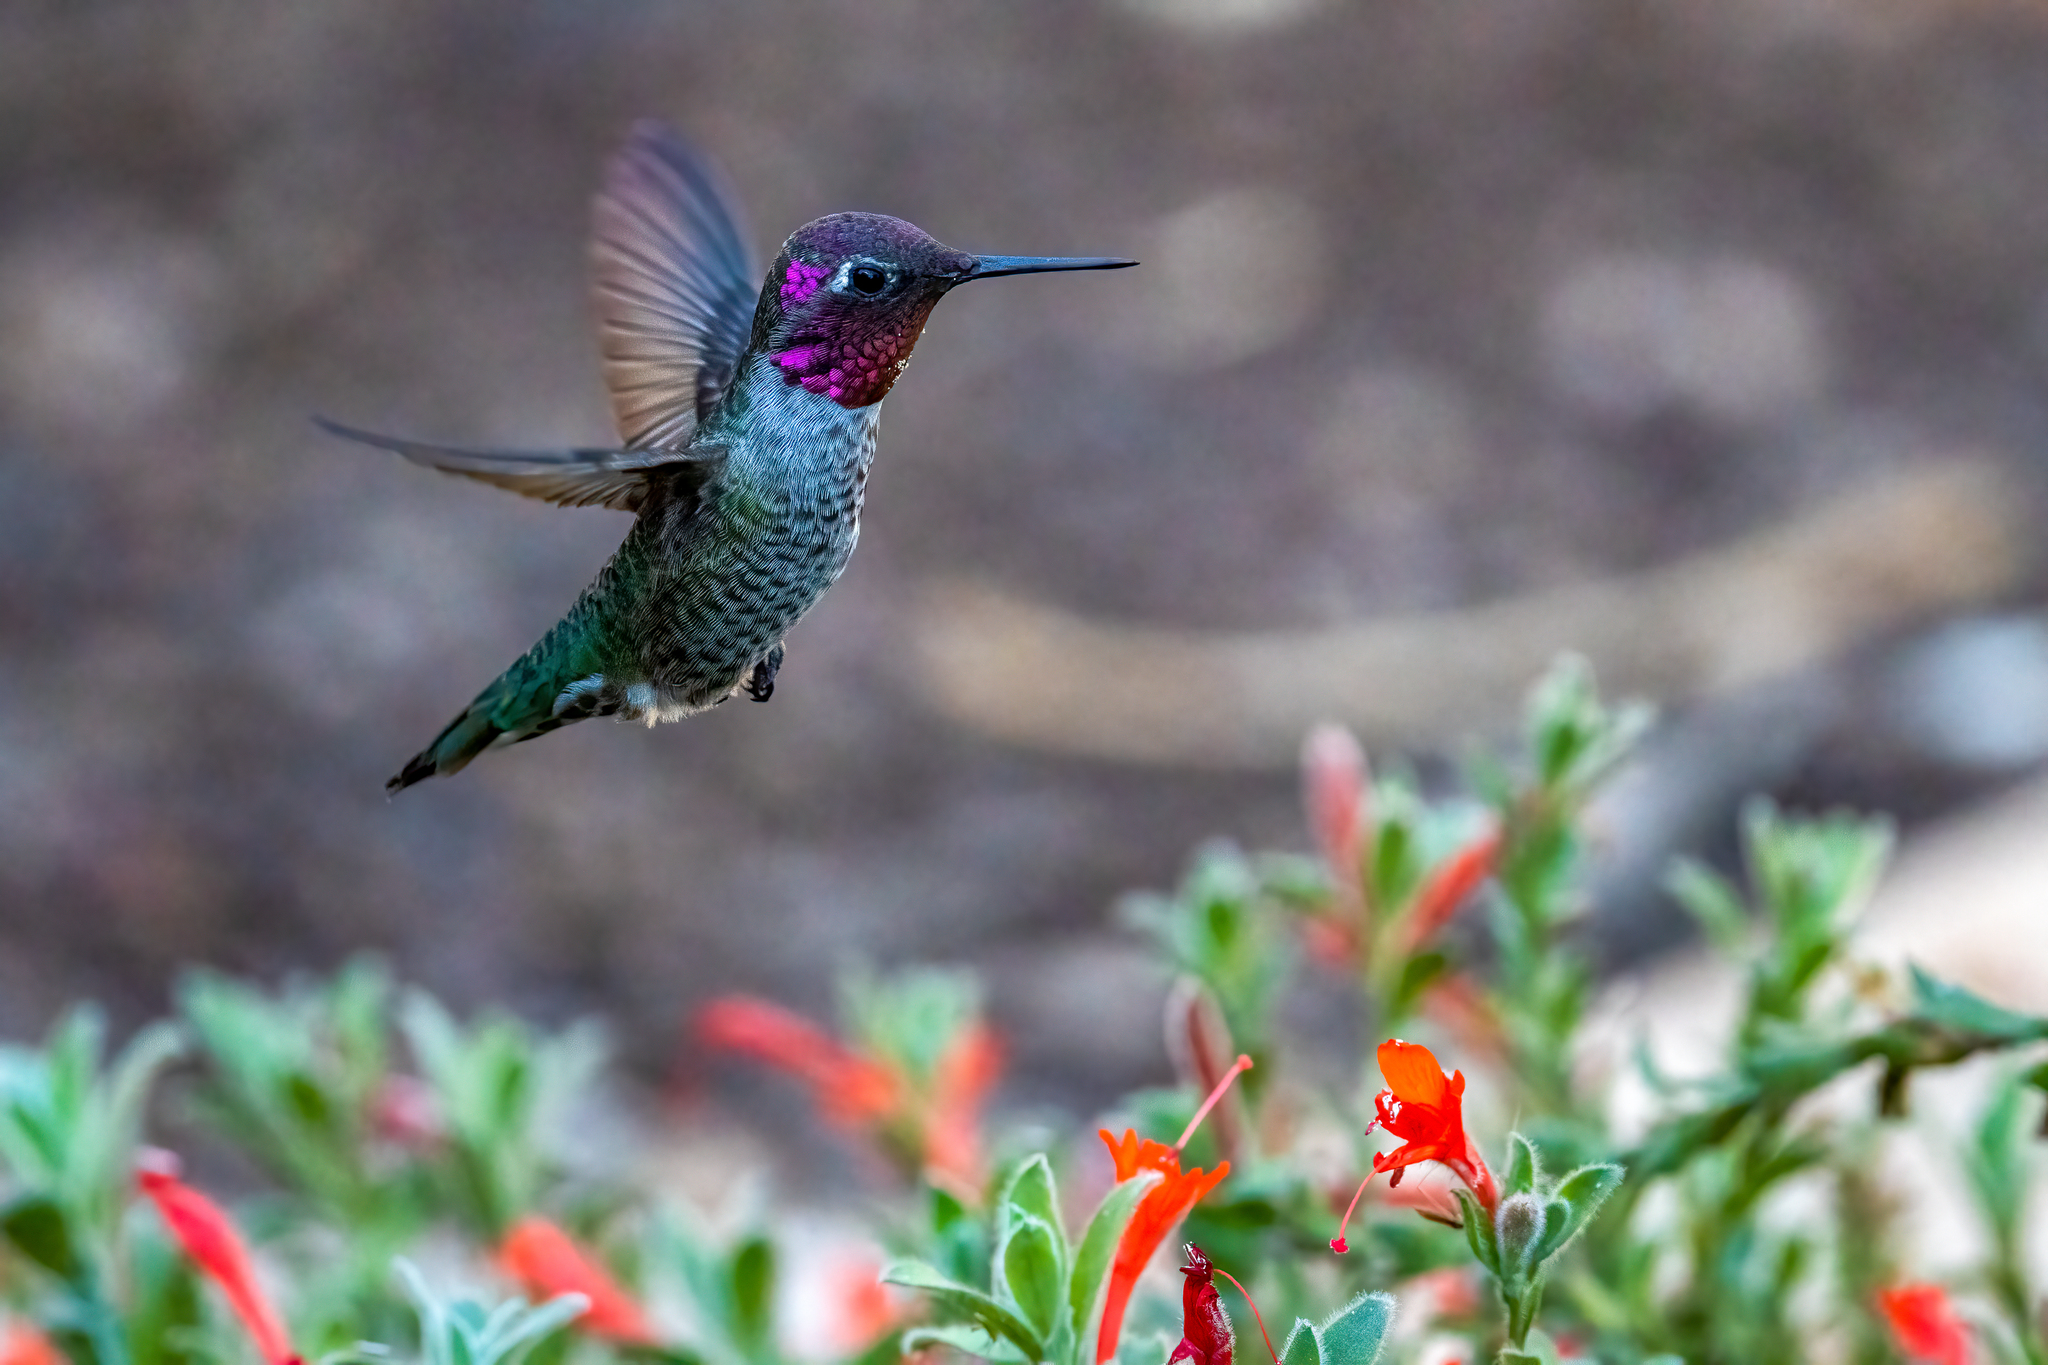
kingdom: Animalia
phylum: Chordata
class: Aves
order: Apodiformes
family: Trochilidae
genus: Calypte
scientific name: Calypte anna
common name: Anna's hummingbird
